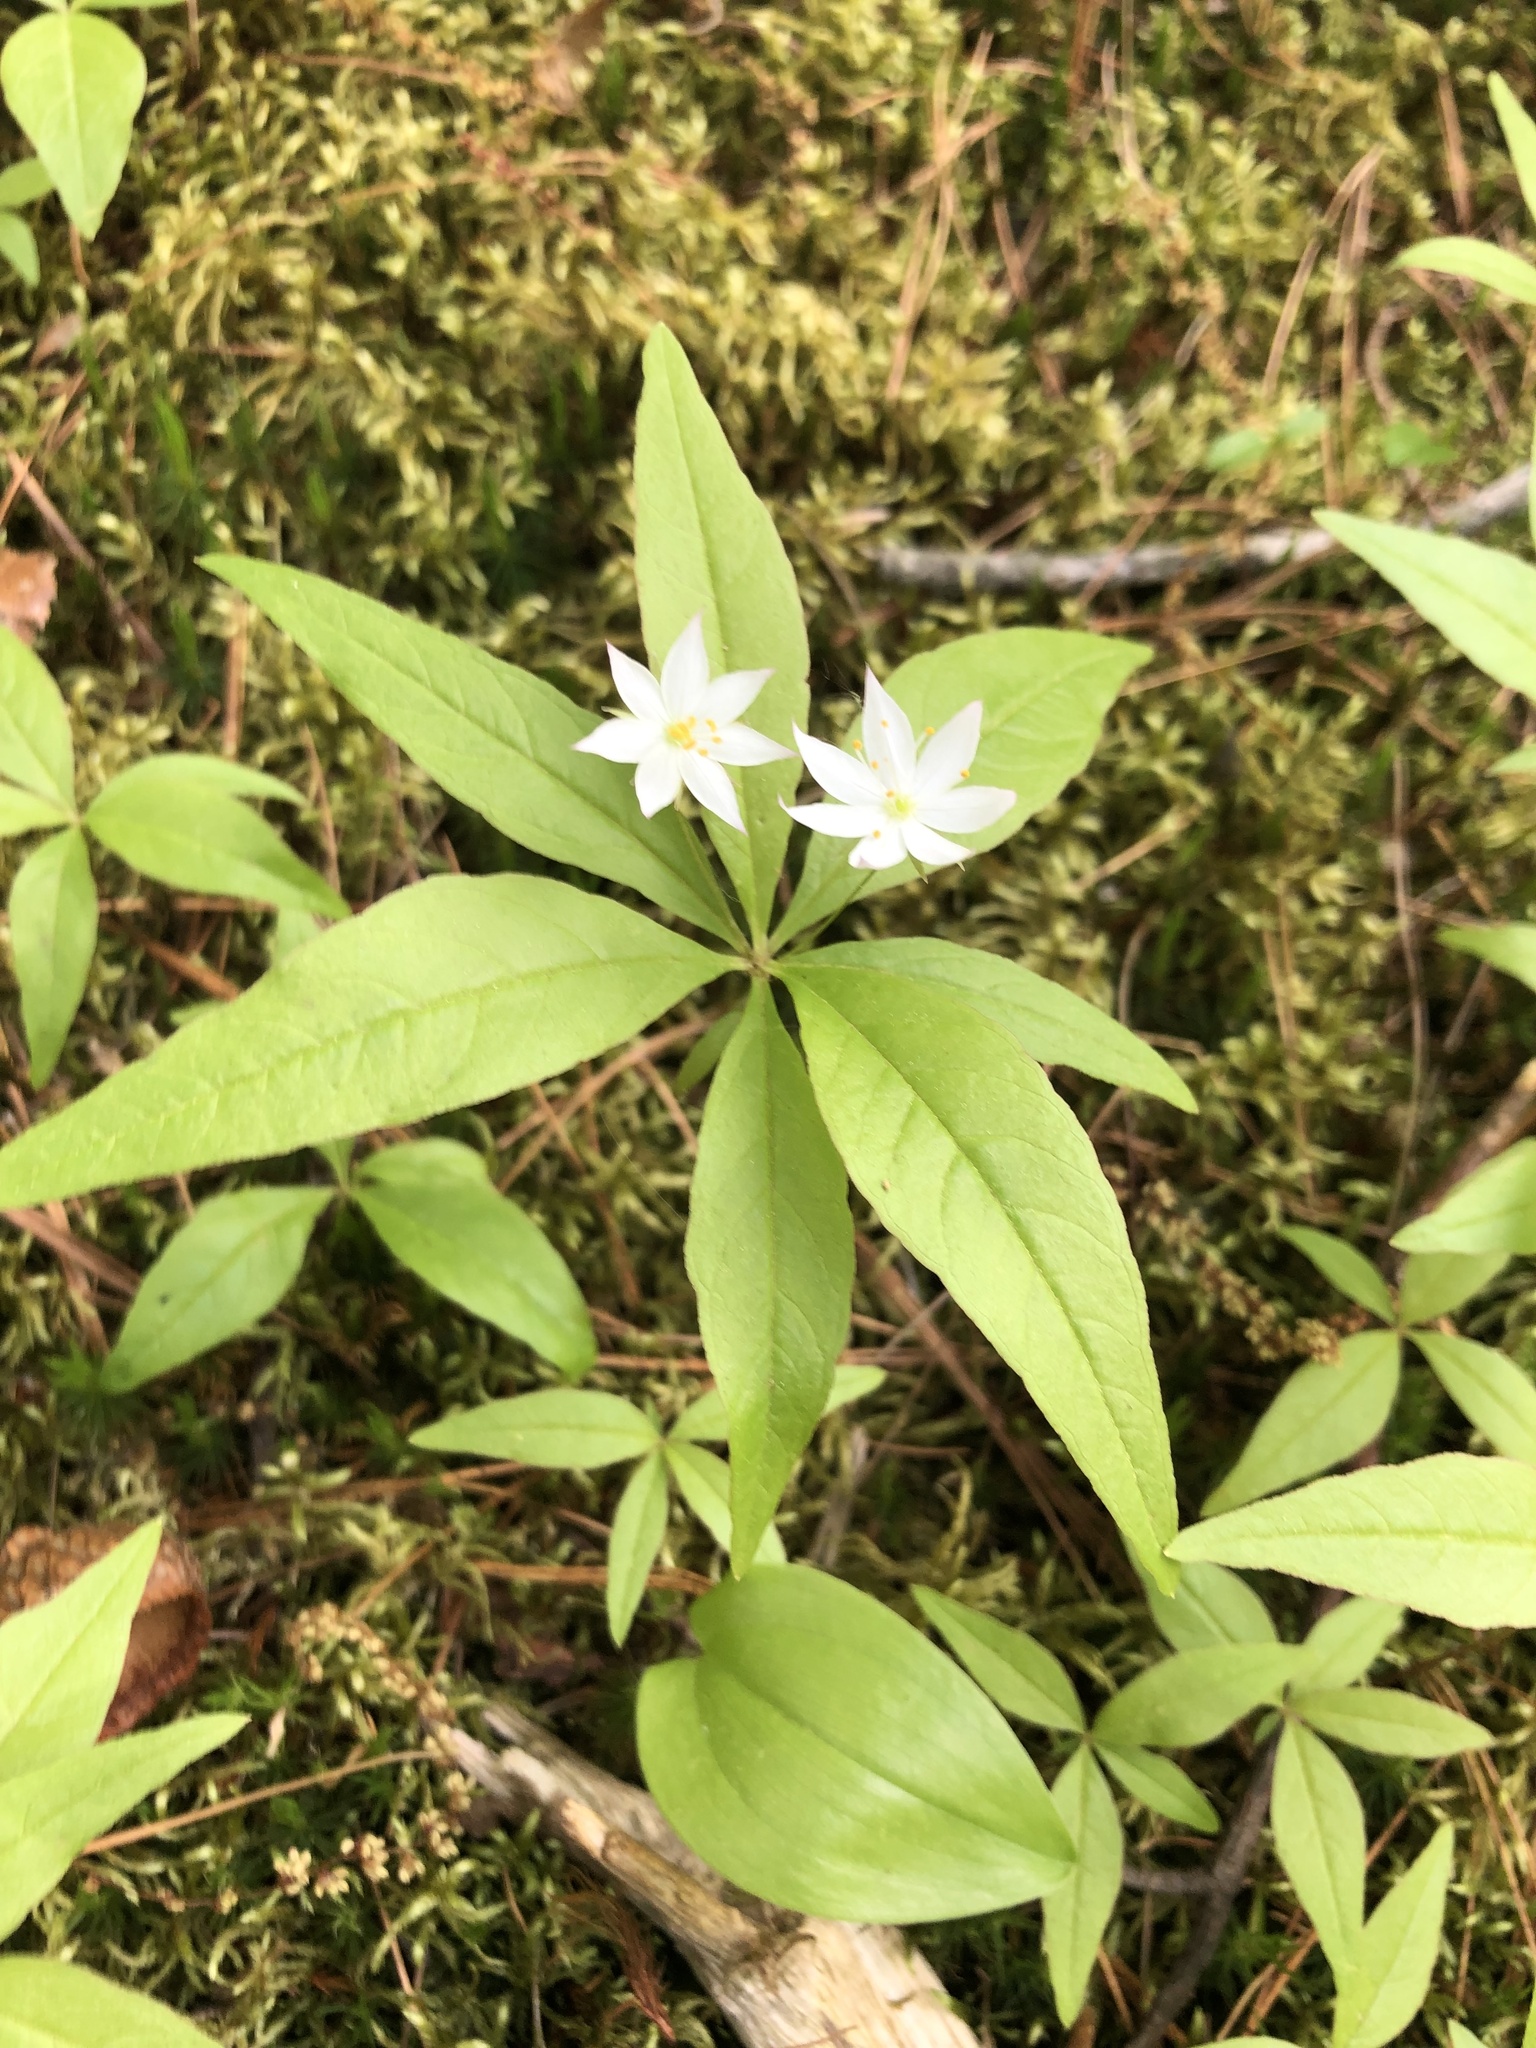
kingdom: Plantae
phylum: Tracheophyta
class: Magnoliopsida
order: Ericales
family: Primulaceae
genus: Lysimachia
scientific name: Lysimachia borealis
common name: American starflower
